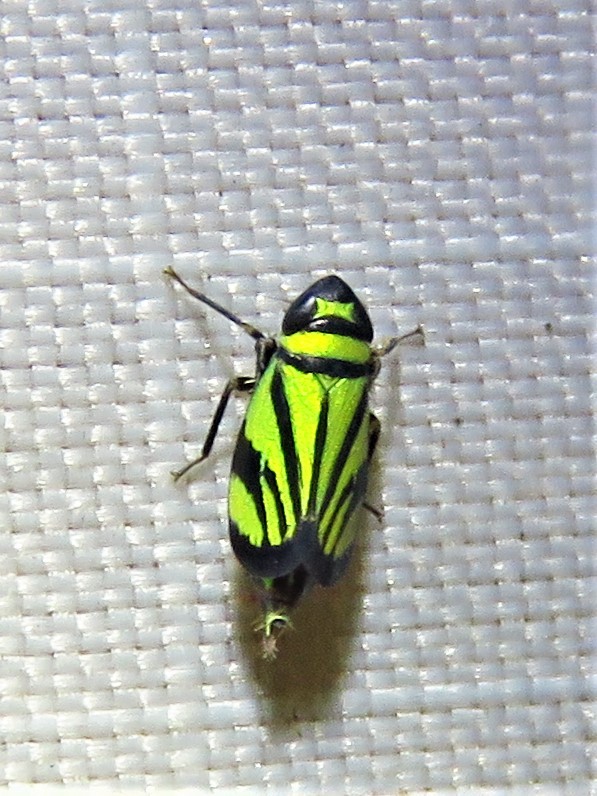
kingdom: Animalia
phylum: Arthropoda
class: Insecta
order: Hemiptera
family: Cicadellidae
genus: Stirellus
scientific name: Stirellus bicolor
